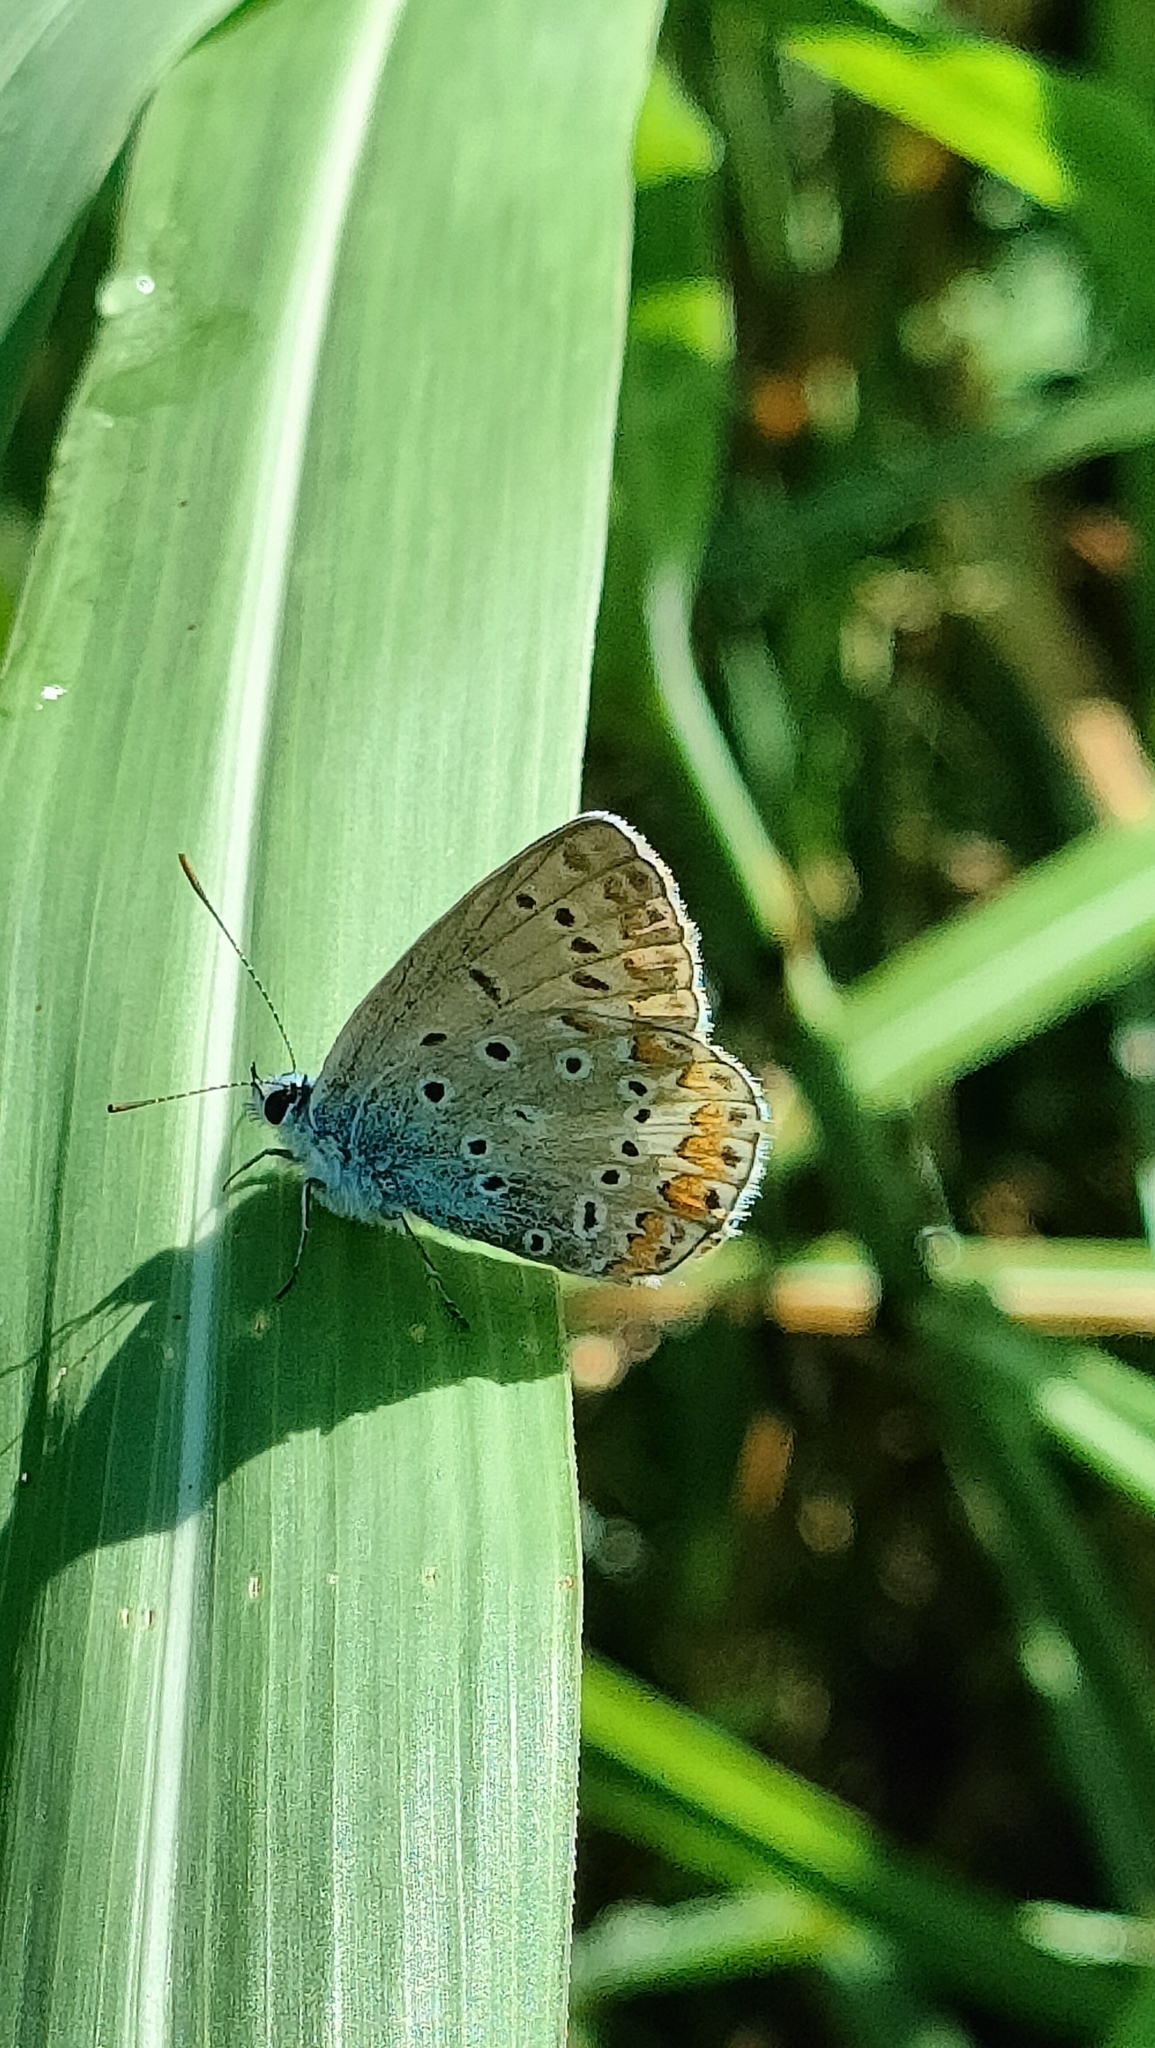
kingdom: Animalia
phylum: Arthropoda
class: Insecta
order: Lepidoptera
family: Lycaenidae
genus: Polyommatus
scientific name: Polyommatus icarus
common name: Common blue
